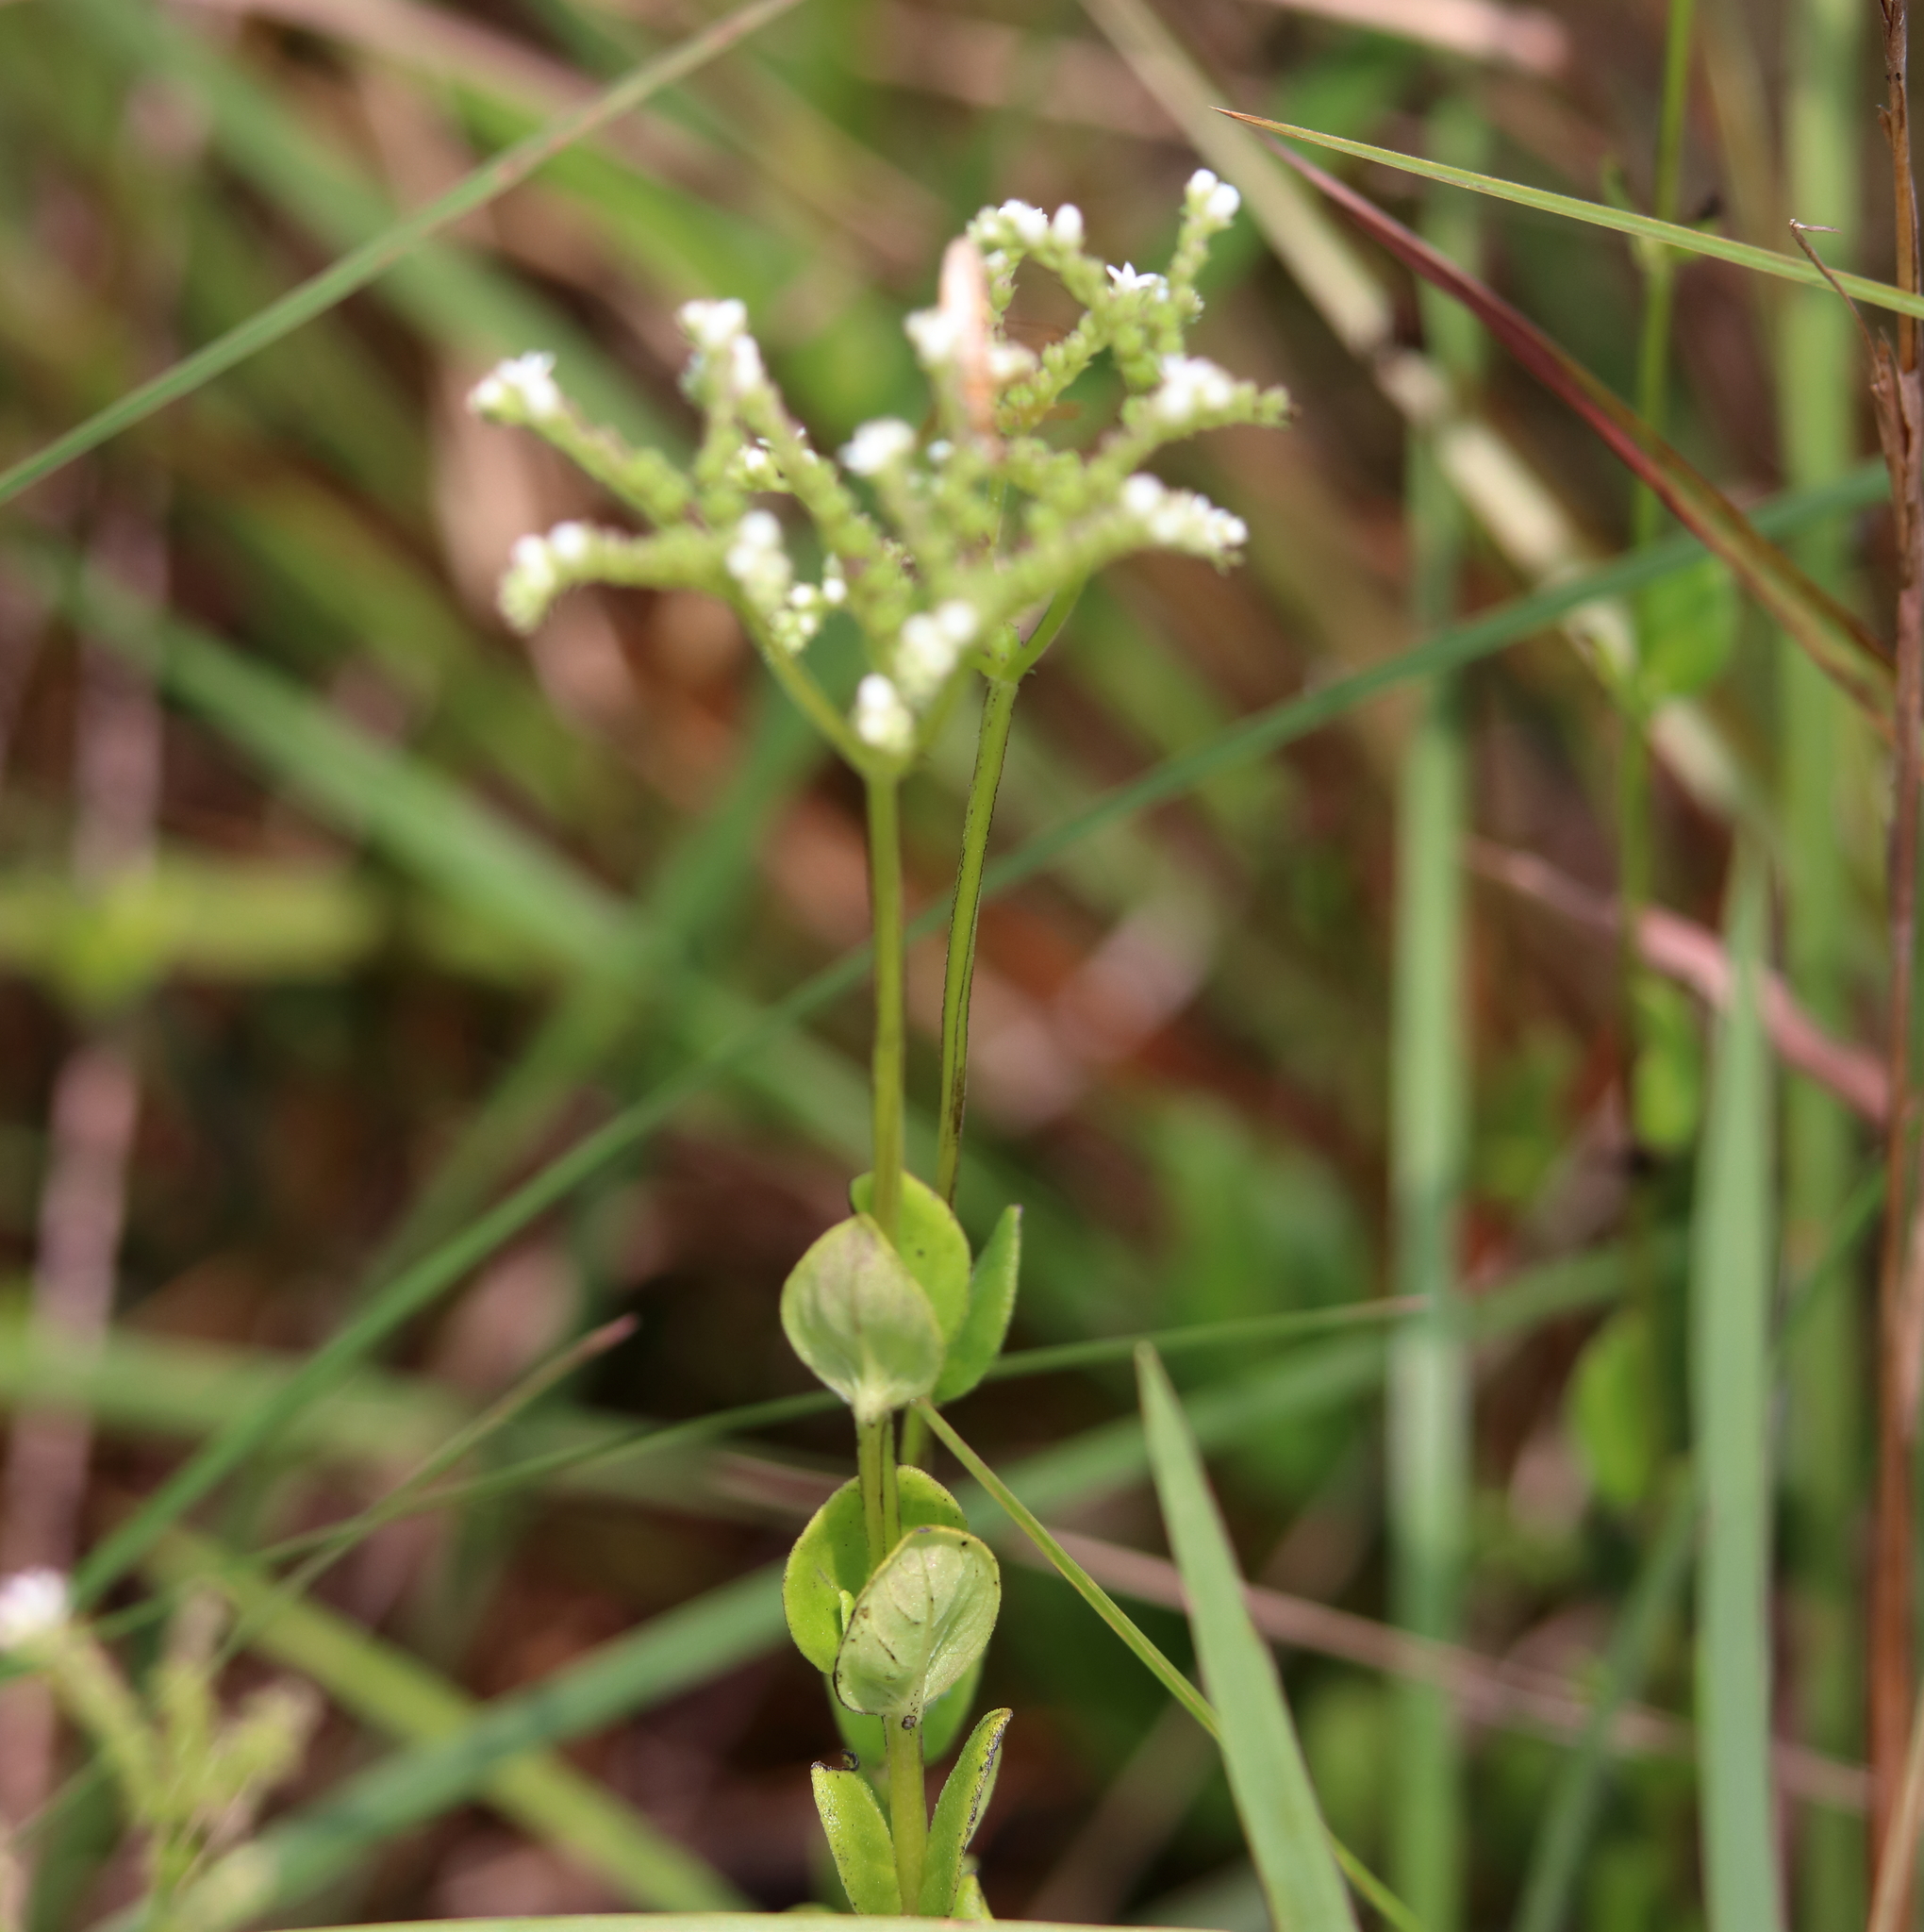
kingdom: Plantae
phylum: Tracheophyta
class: Magnoliopsida
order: Gentianales
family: Loganiaceae
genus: Mitreola
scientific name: Mitreola sessilifolia
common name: Swamp hornpod
